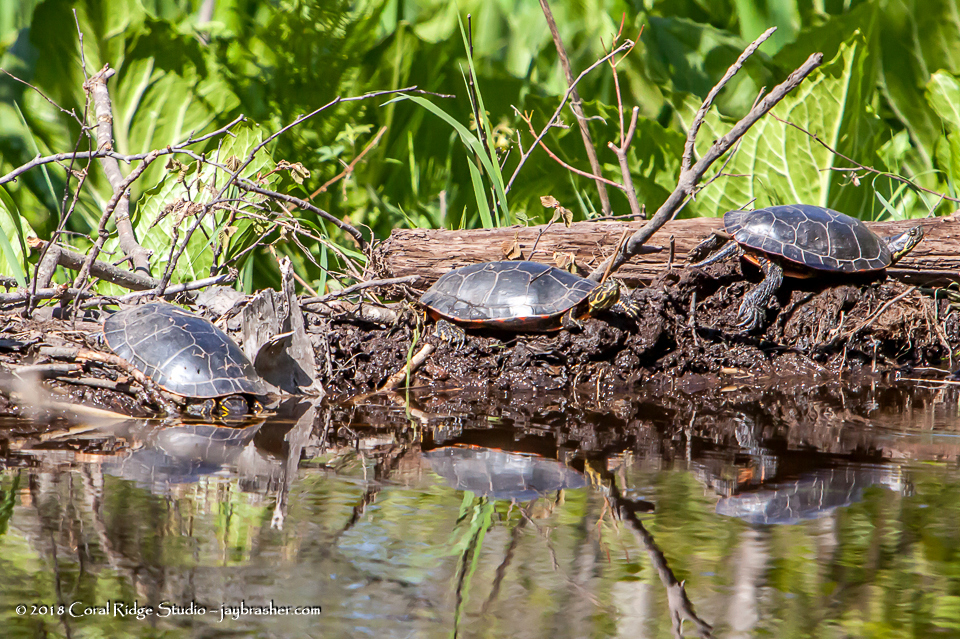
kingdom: Animalia
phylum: Chordata
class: Testudines
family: Emydidae
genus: Chrysemys
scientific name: Chrysemys picta
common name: Painted turtle
